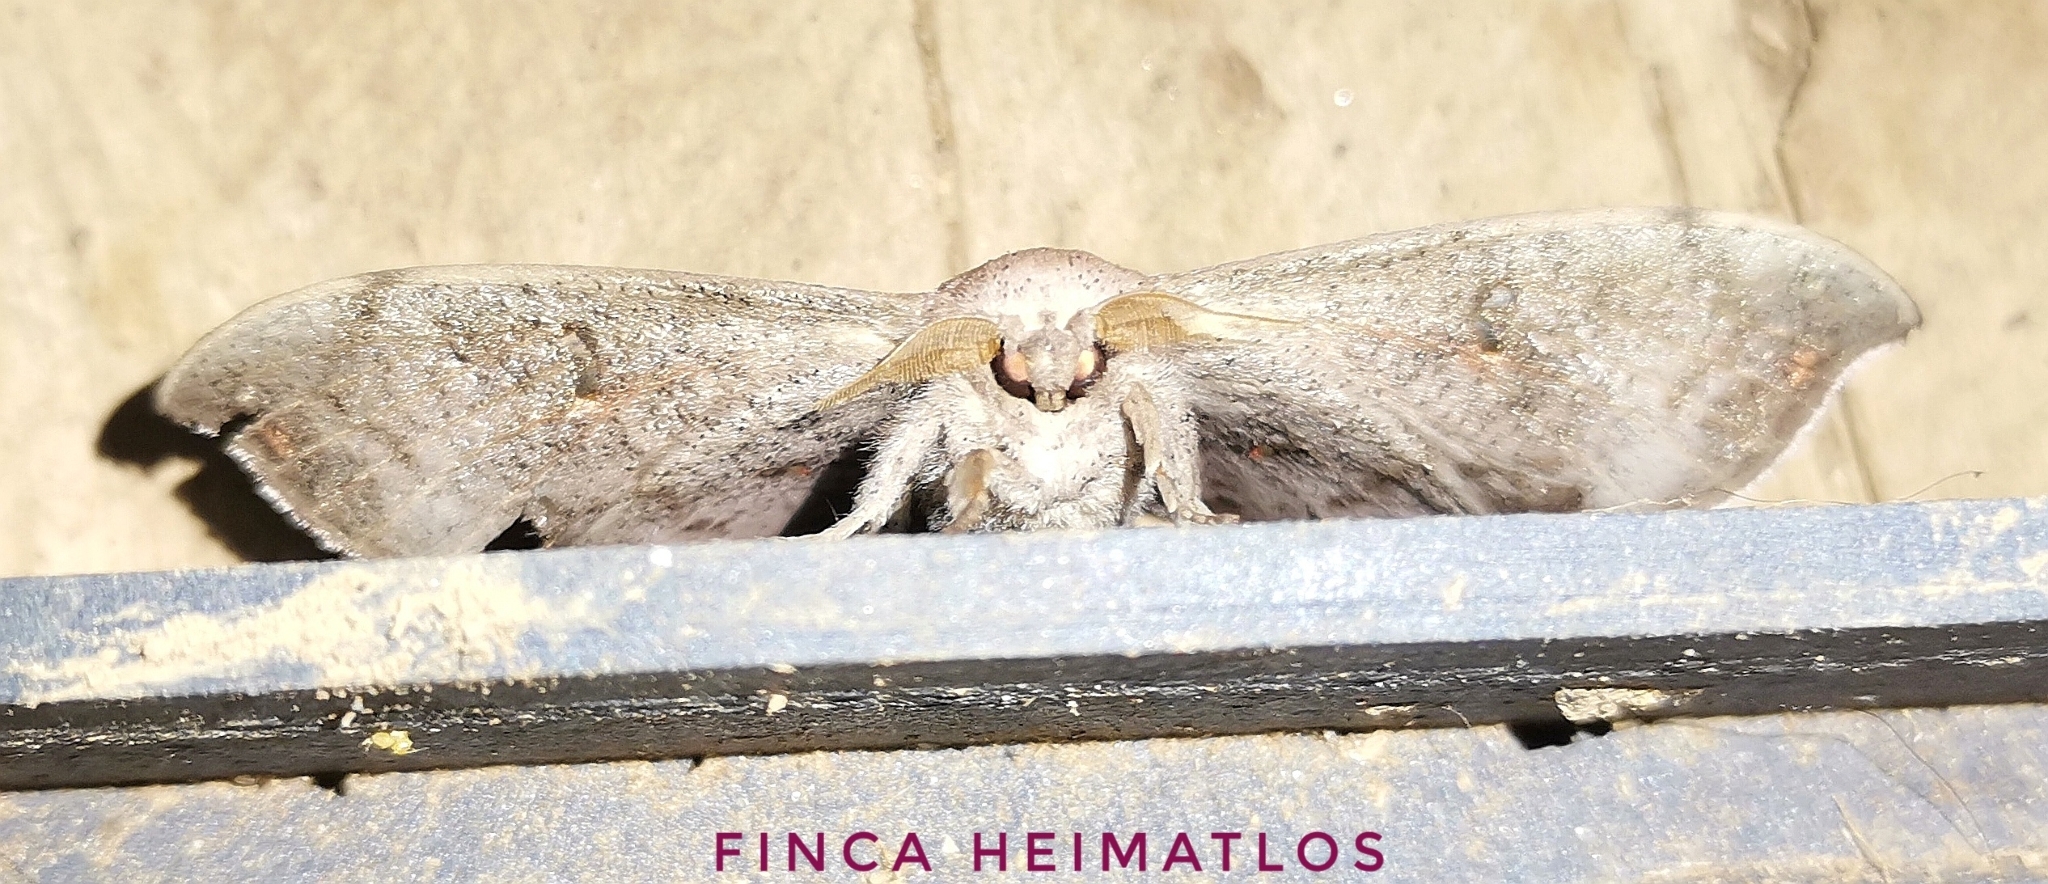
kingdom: Animalia
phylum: Arthropoda
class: Insecta
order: Lepidoptera
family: Mimallonidae
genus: Cicinnus
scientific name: Cicinnus fogia
